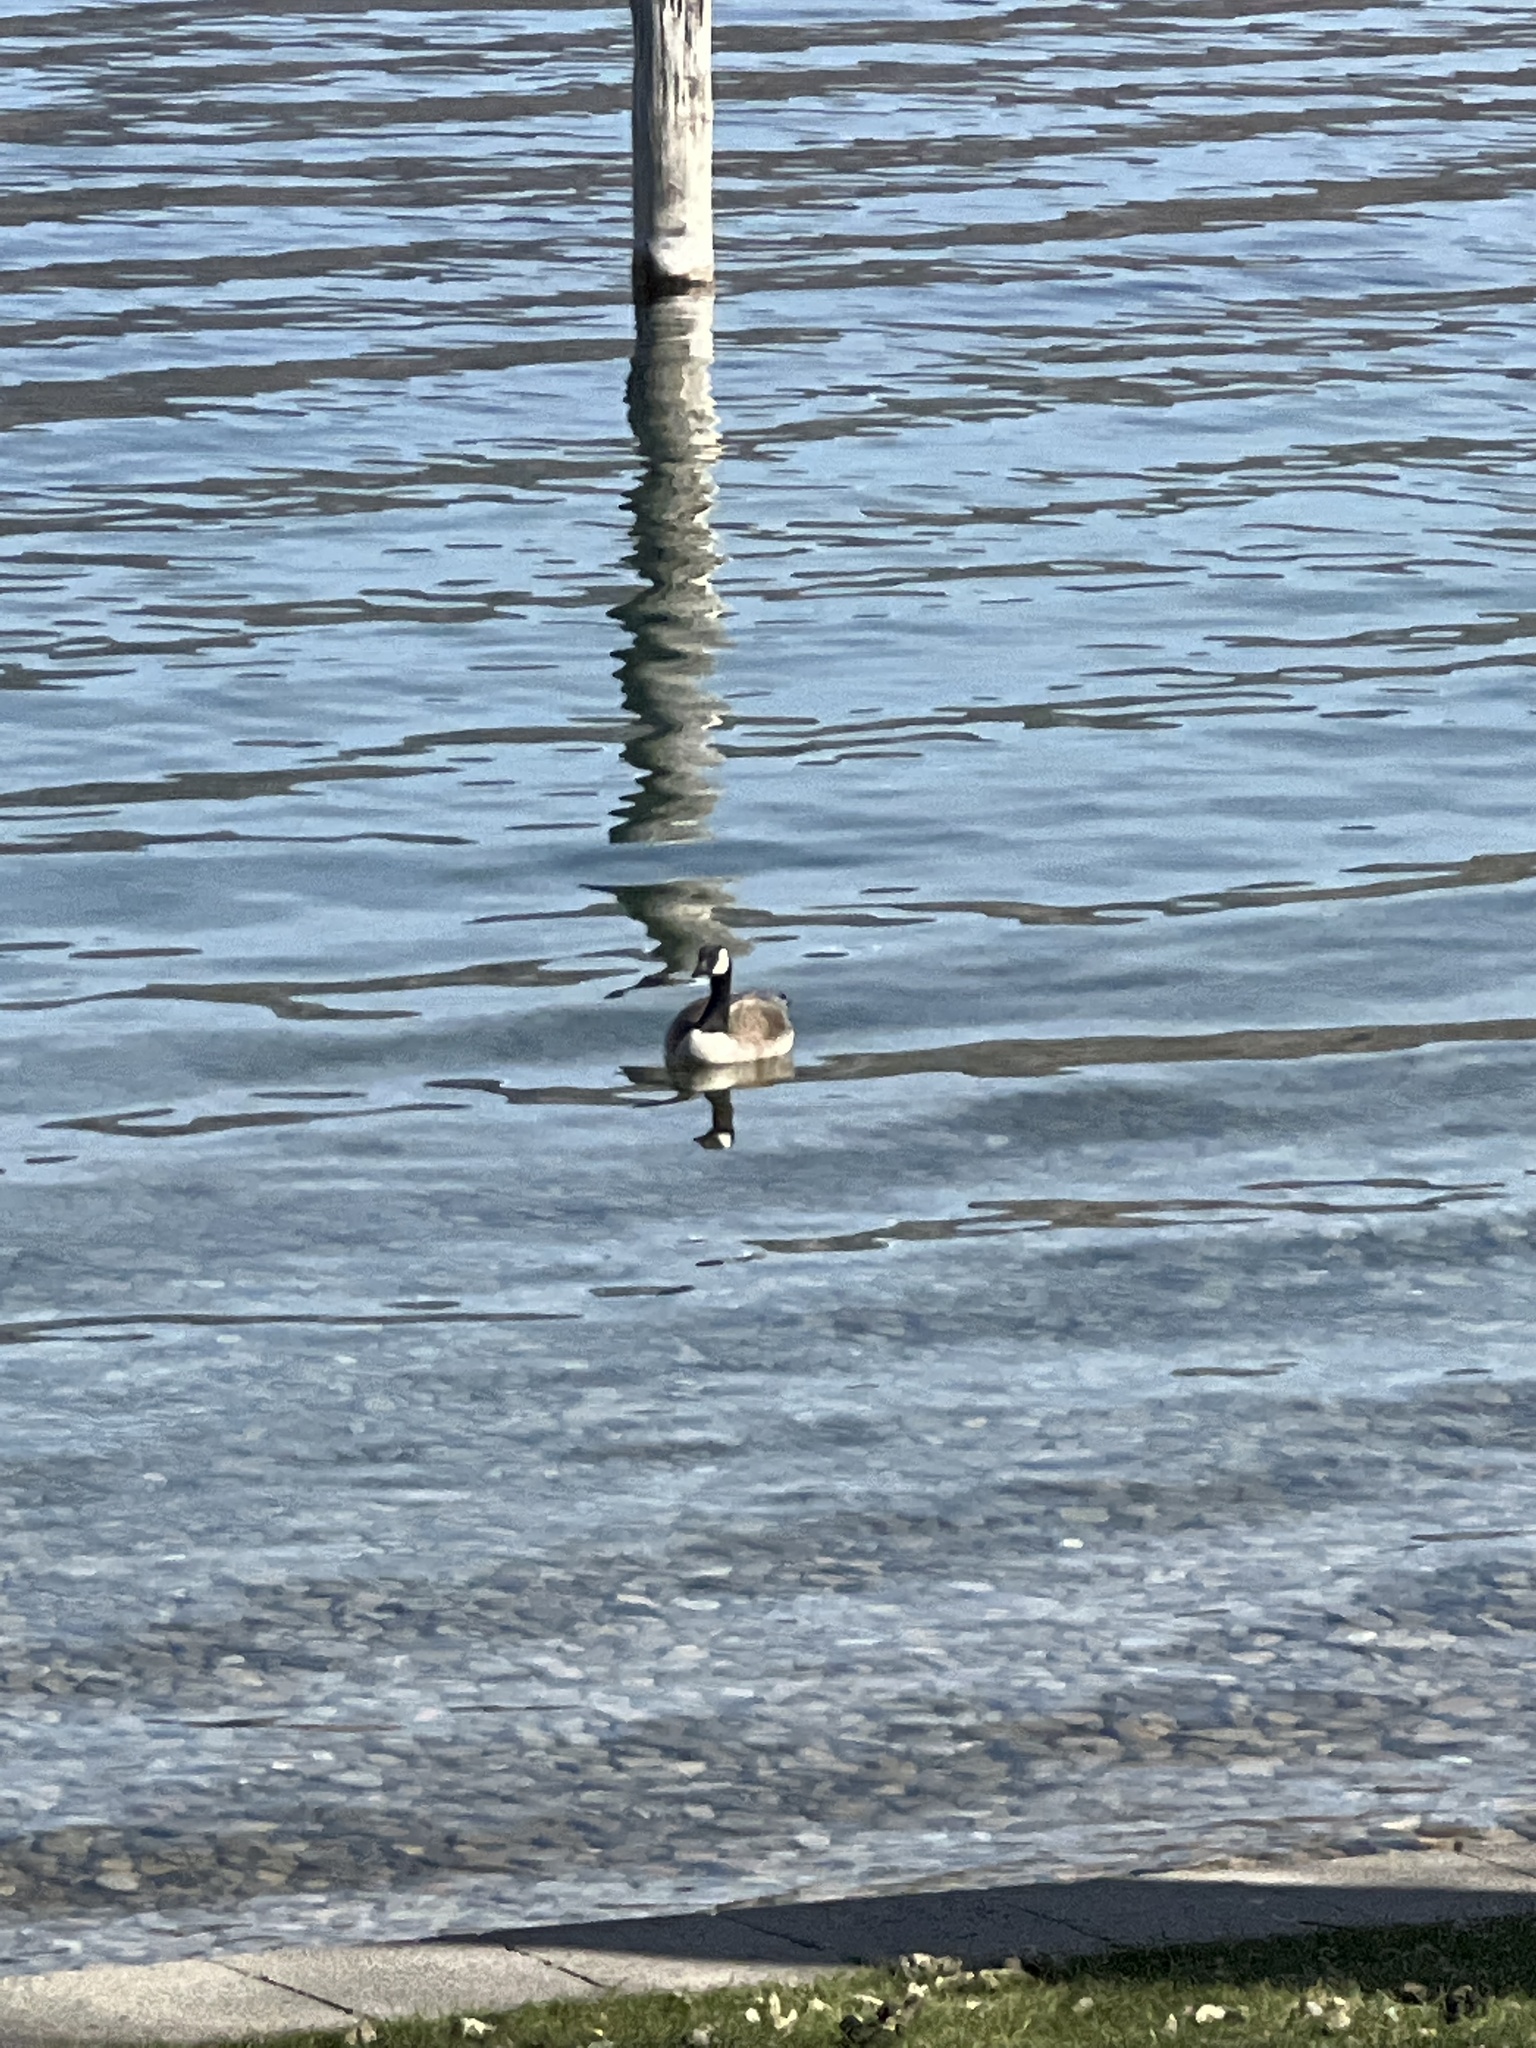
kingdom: Animalia
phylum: Chordata
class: Aves
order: Anseriformes
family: Anatidae
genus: Branta
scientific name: Branta canadensis
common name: Canada goose
